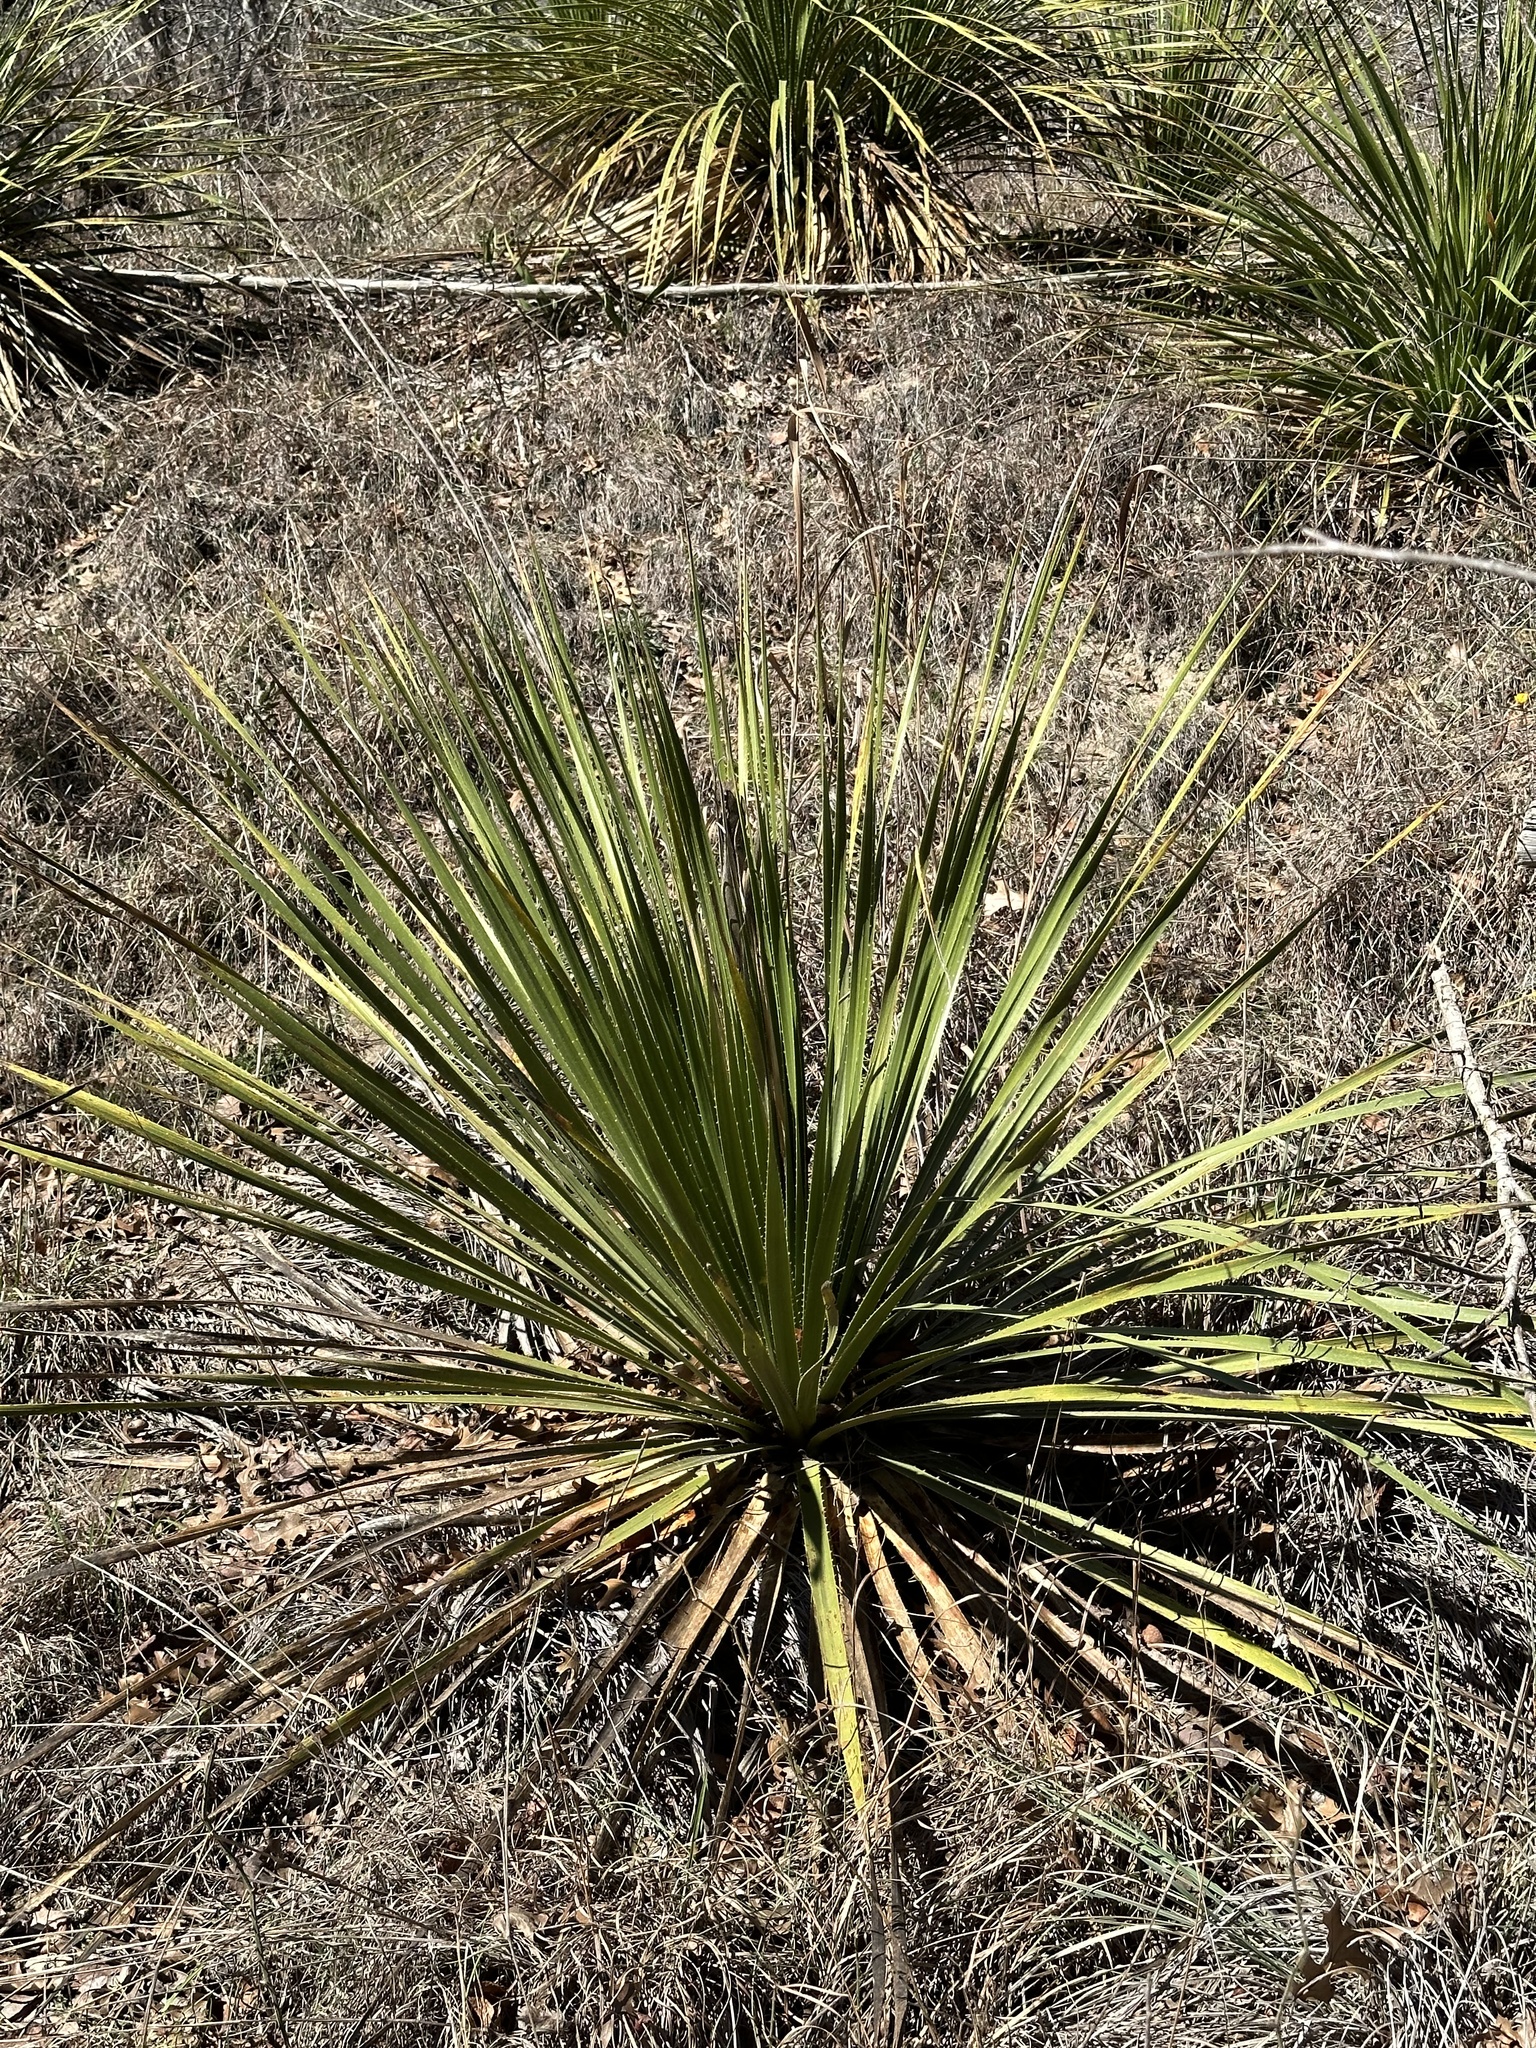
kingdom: Plantae
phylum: Tracheophyta
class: Liliopsida
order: Asparagales
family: Asparagaceae
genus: Dasylirion
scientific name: Dasylirion texanum
